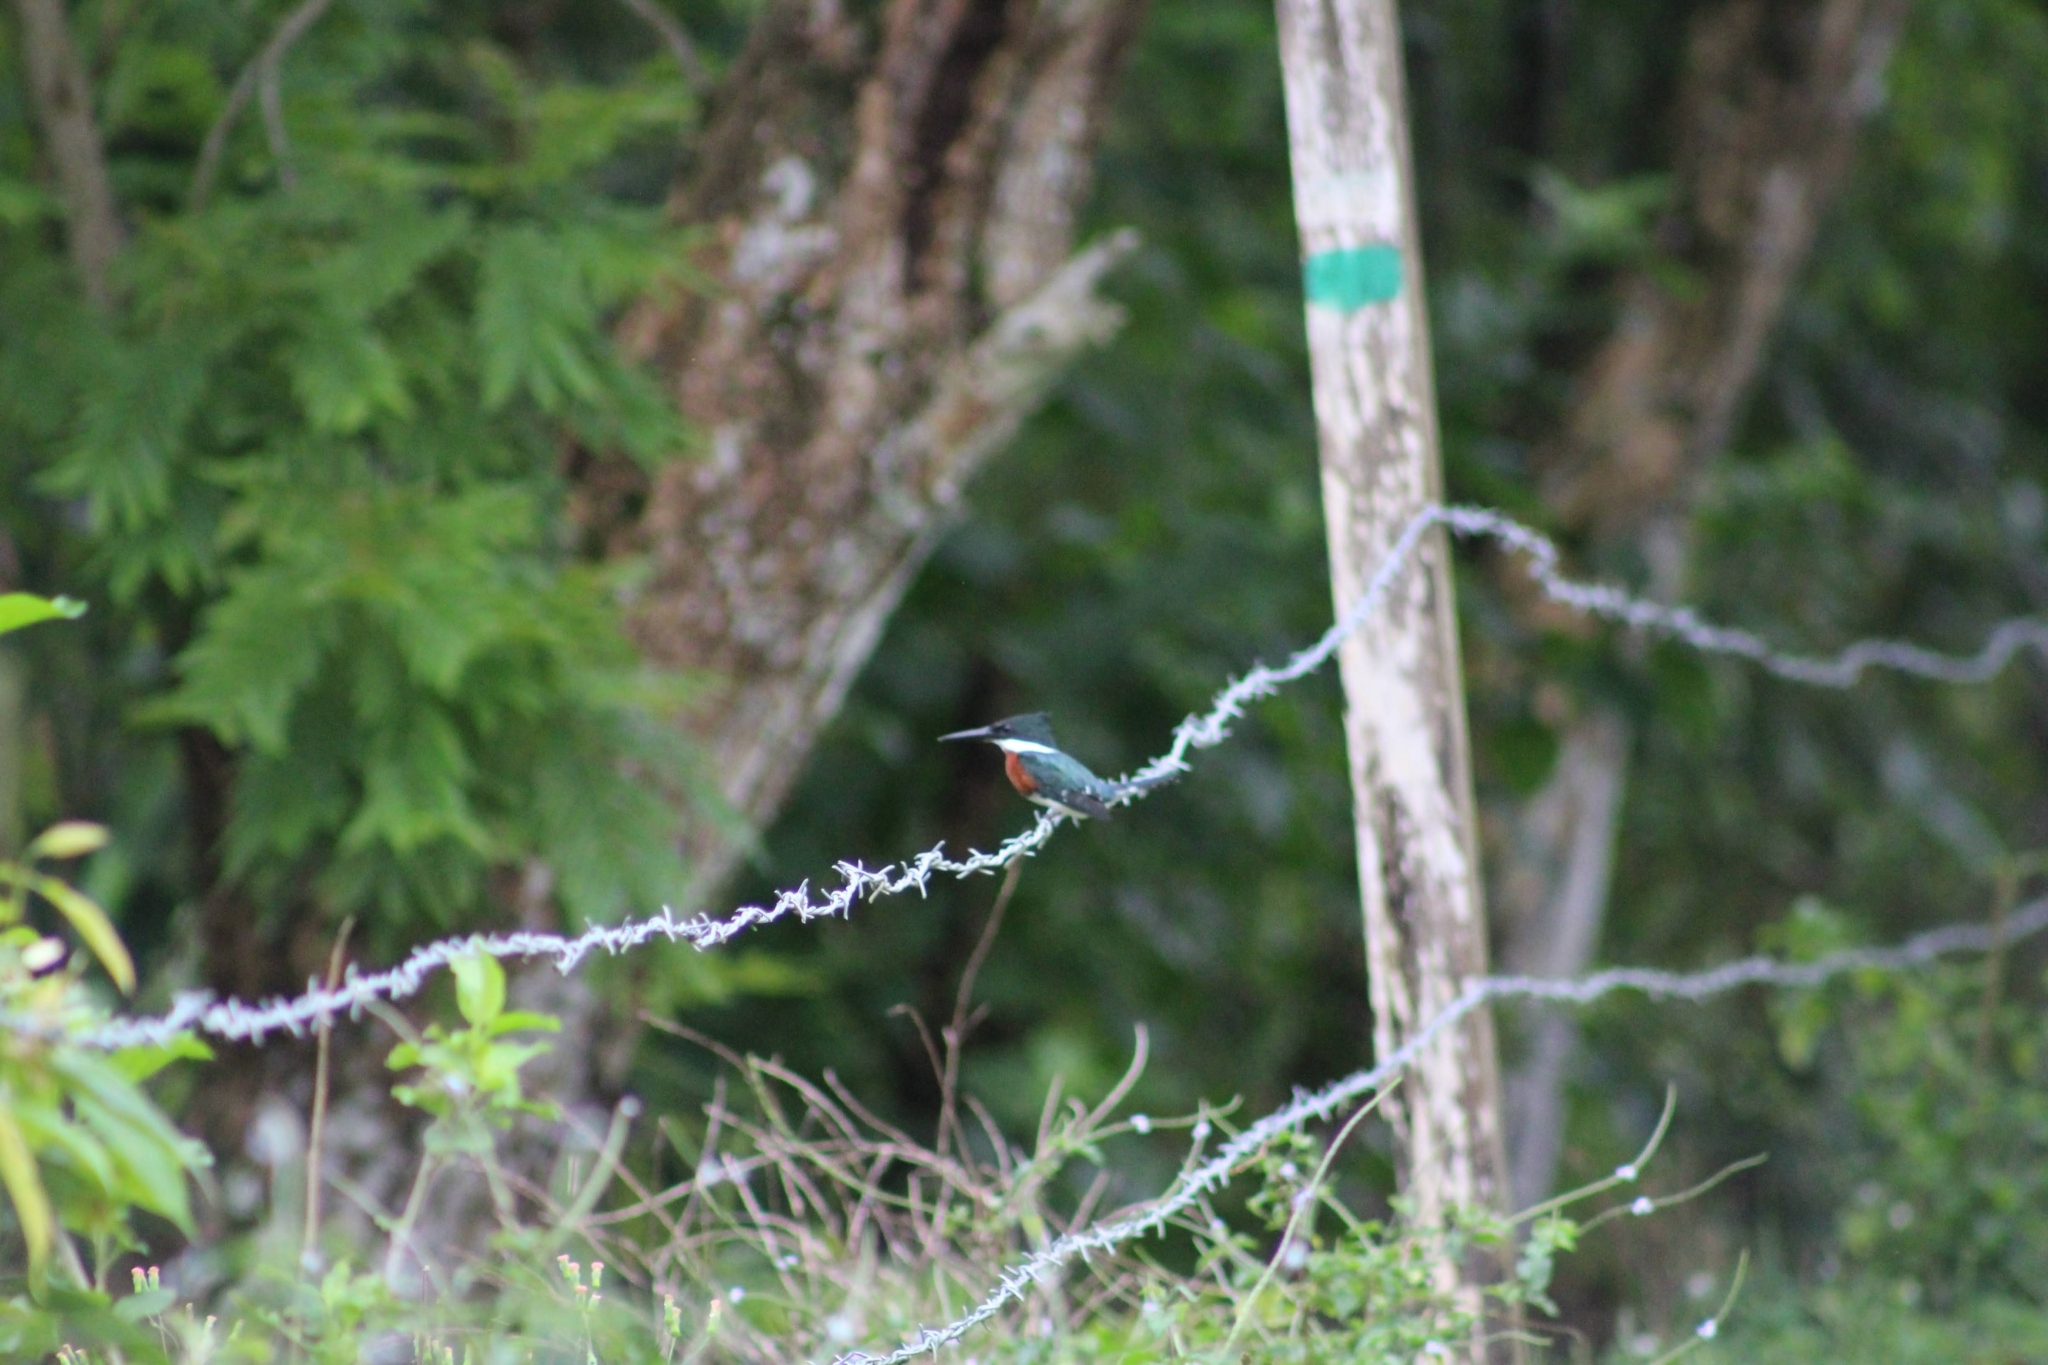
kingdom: Animalia
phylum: Chordata
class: Aves
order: Coraciiformes
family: Alcedinidae
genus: Chloroceryle
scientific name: Chloroceryle americana
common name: Green kingfisher
